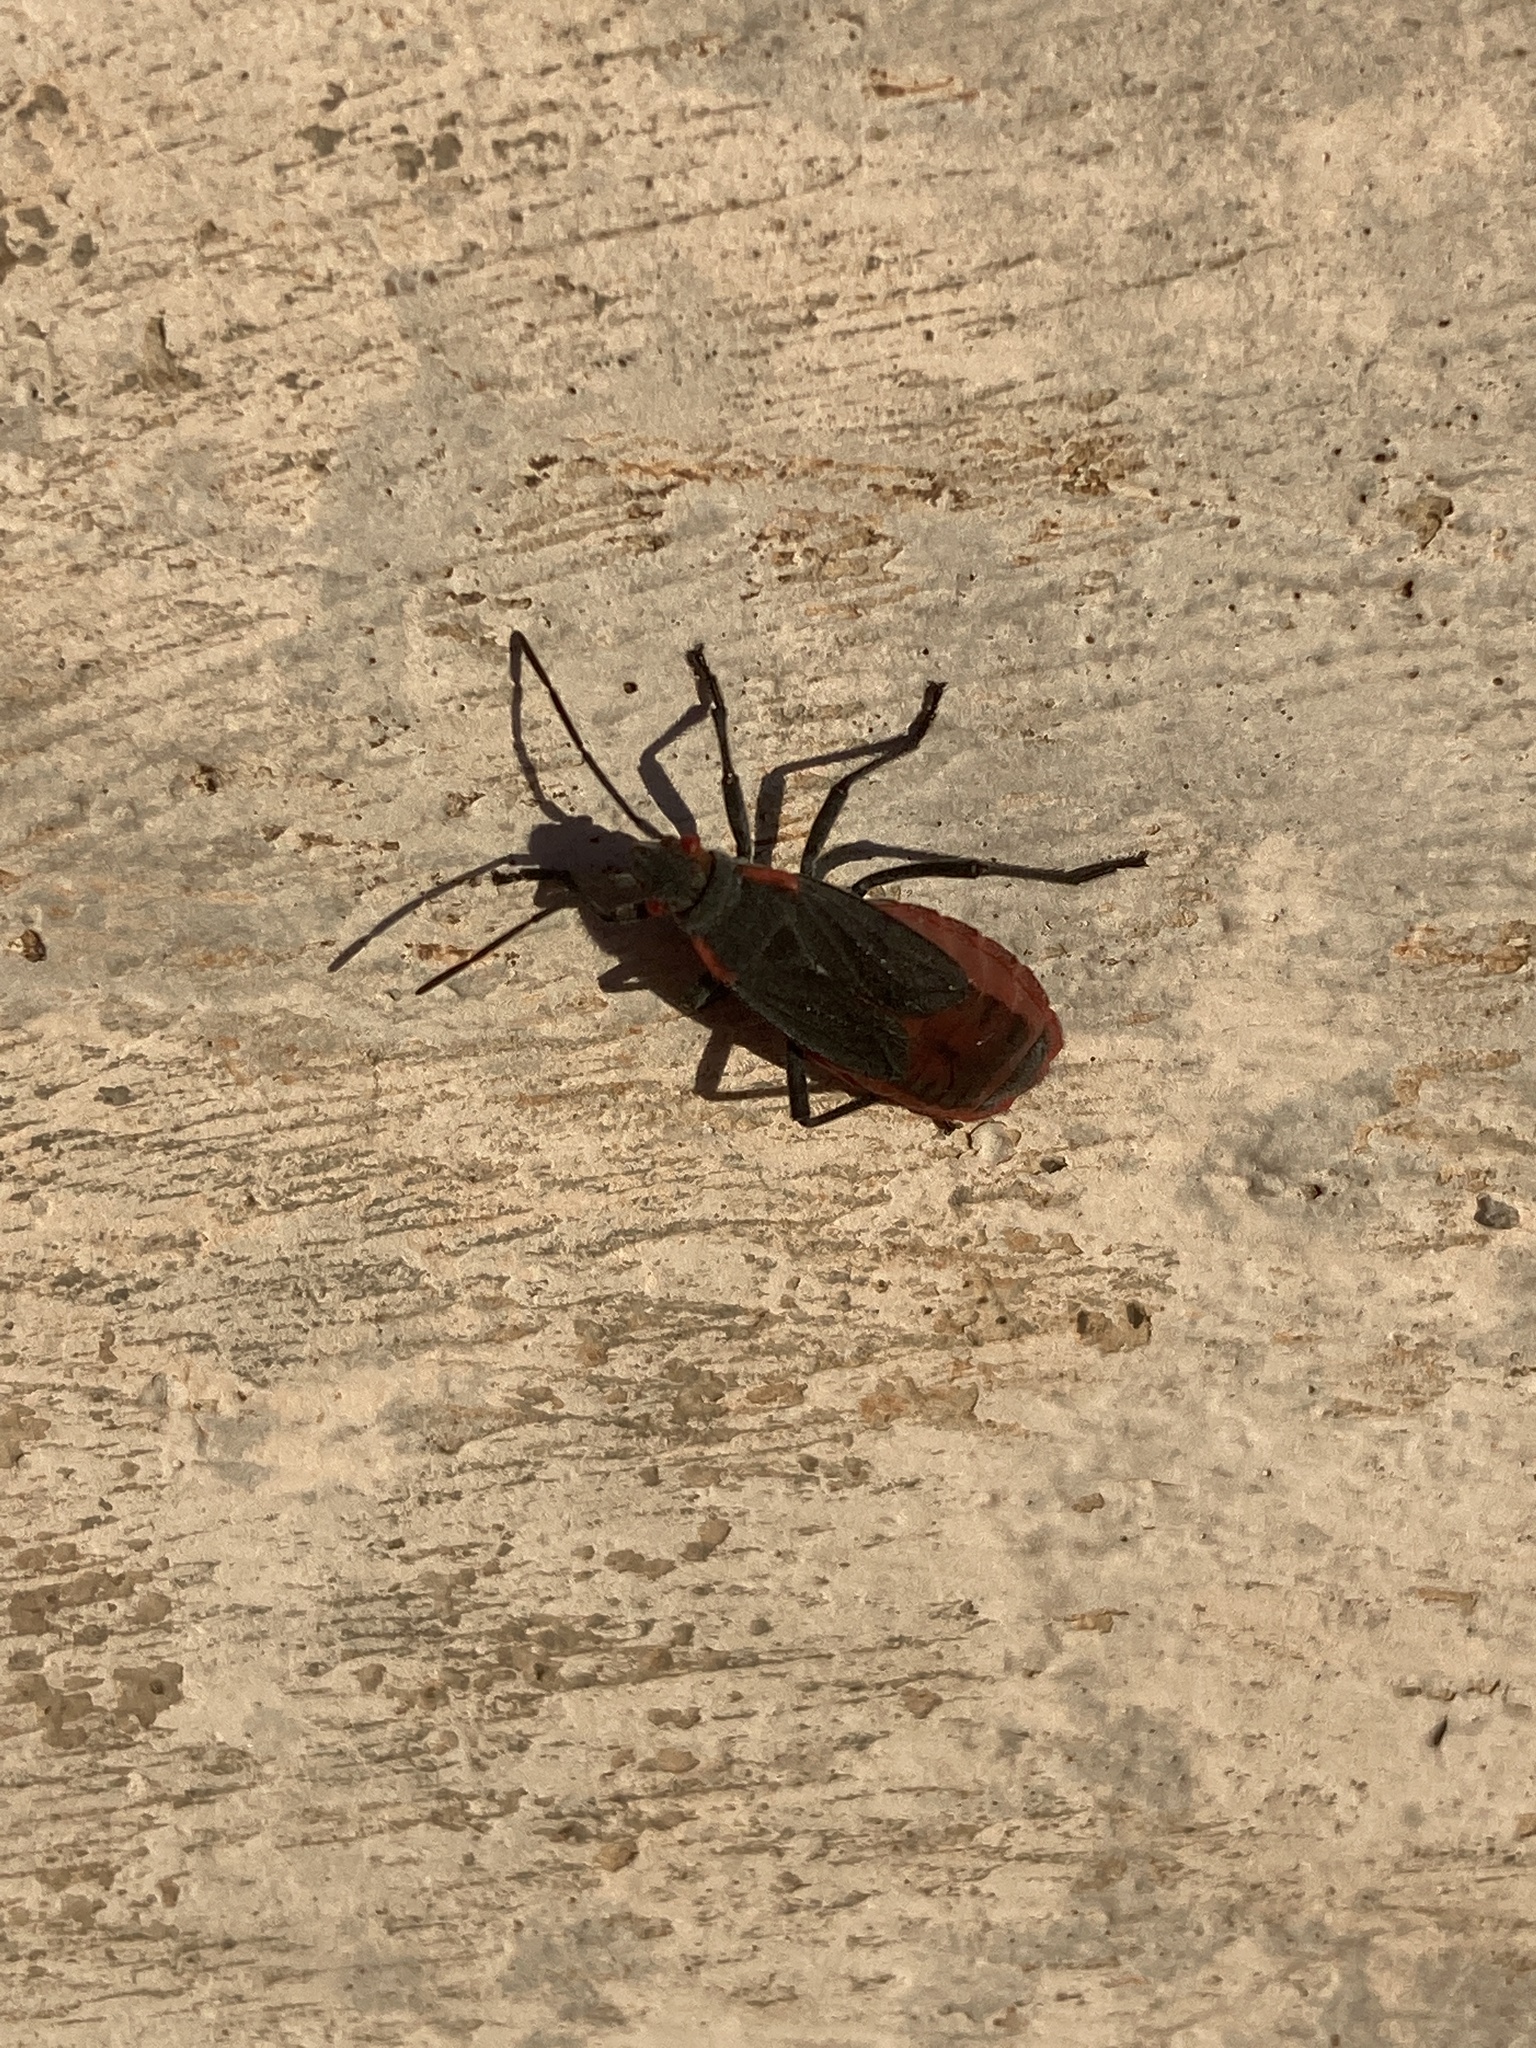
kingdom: Animalia
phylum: Arthropoda
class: Insecta
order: Hemiptera
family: Rhopalidae
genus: Jadera
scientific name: Jadera haematoloma
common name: Red-shouldered bug
